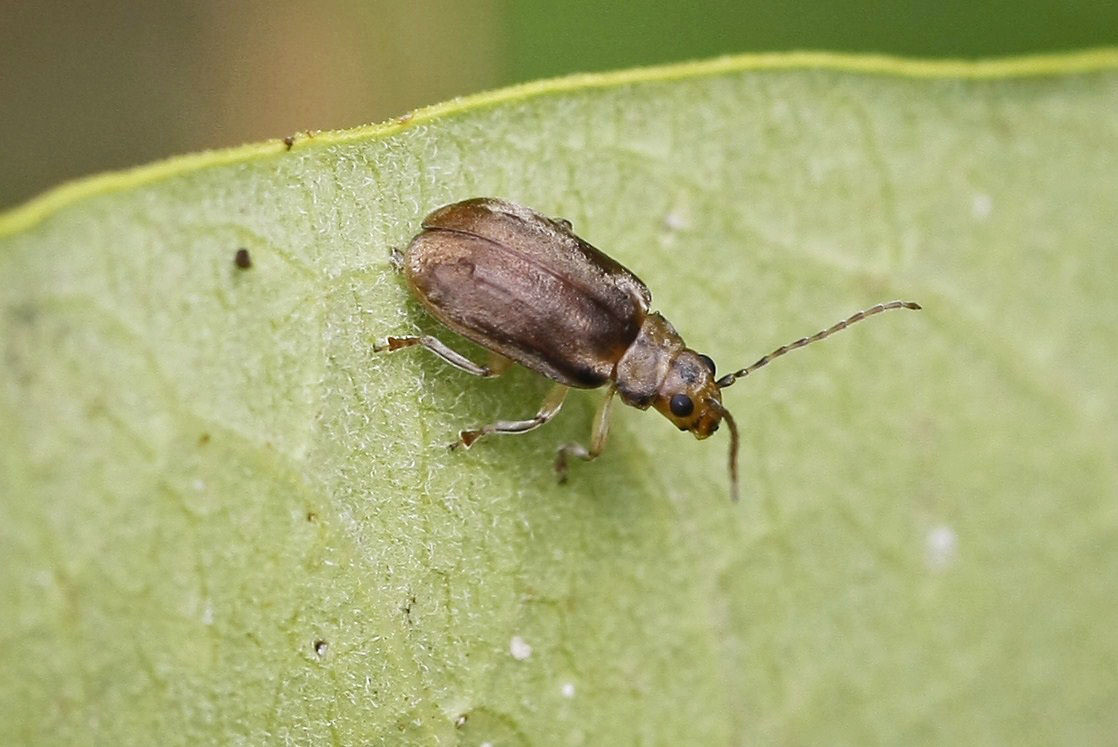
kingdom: Animalia
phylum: Arthropoda
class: Insecta
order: Coleoptera
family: Chrysomelidae
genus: Pyrrhalta
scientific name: Pyrrhalta viburni
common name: Guelder-rose leaf beetle
